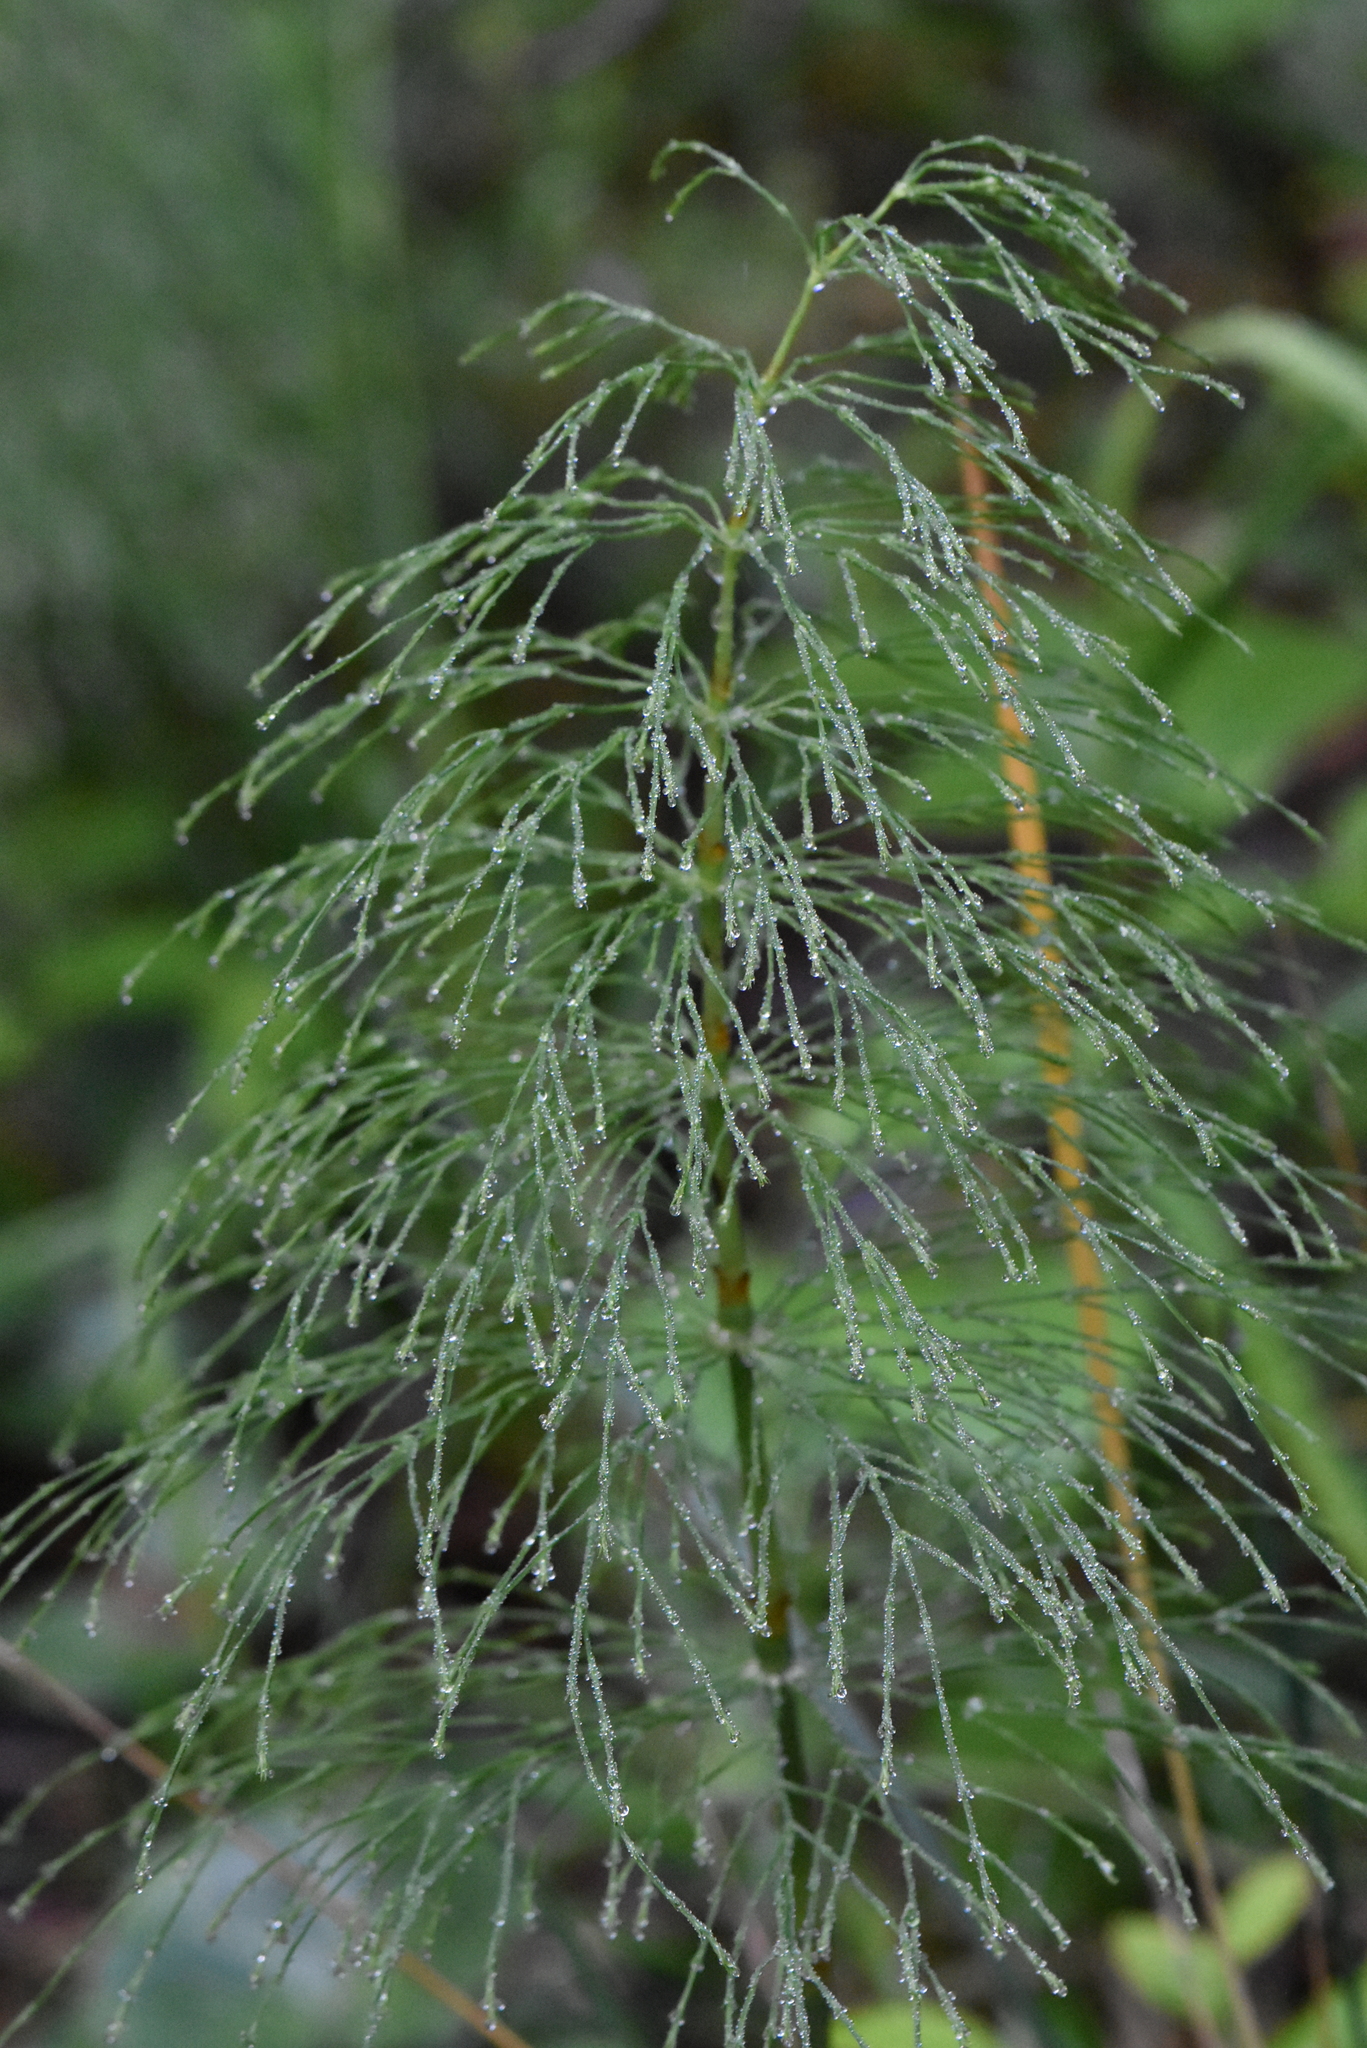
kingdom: Plantae
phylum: Tracheophyta
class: Polypodiopsida
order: Equisetales
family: Equisetaceae
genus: Equisetum
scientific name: Equisetum sylvaticum
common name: Wood horsetail
